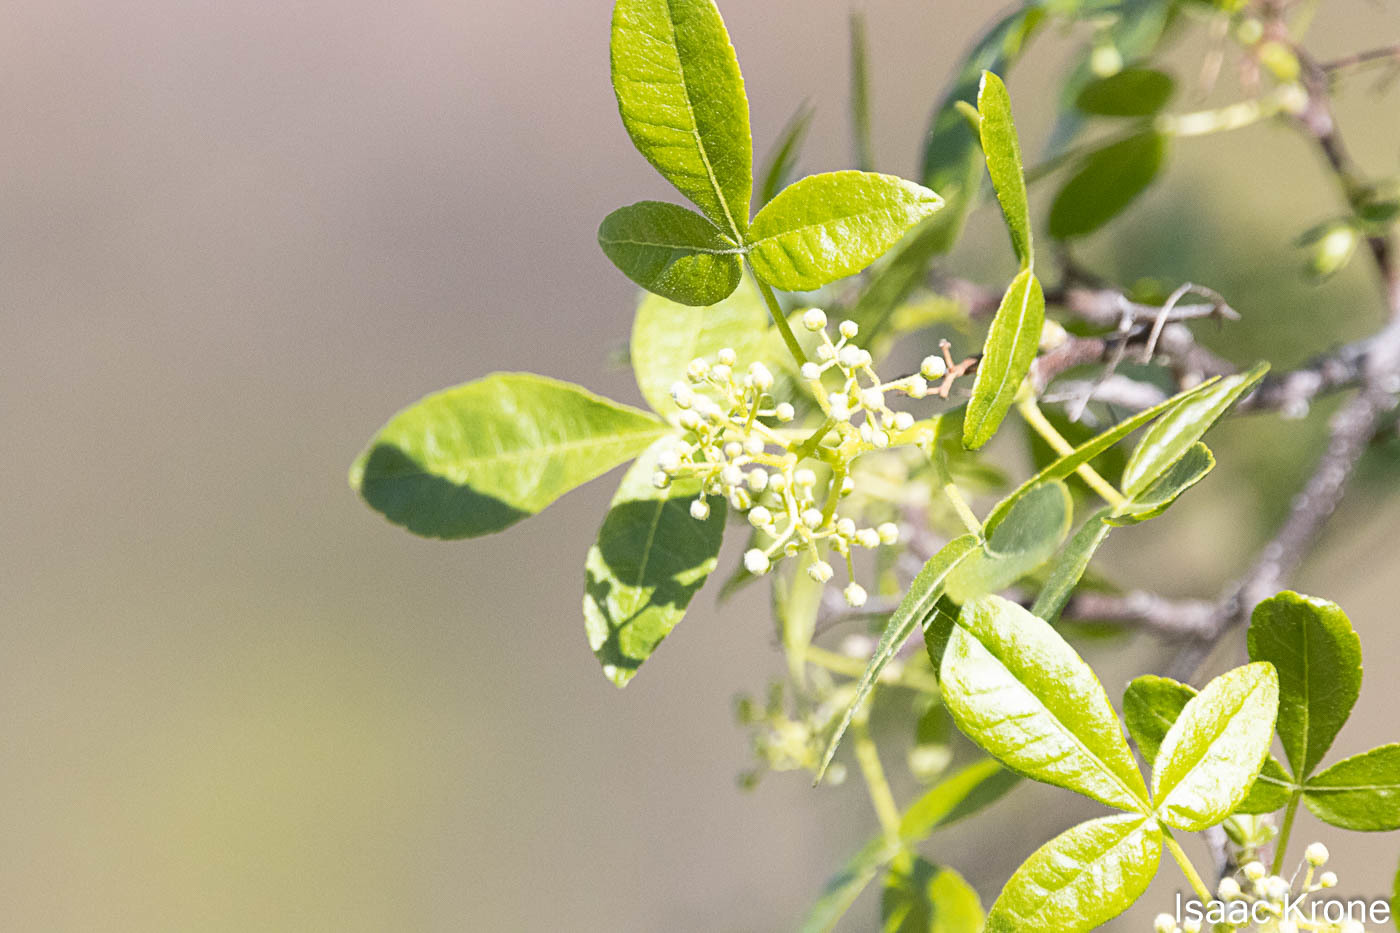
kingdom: Plantae
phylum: Tracheophyta
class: Magnoliopsida
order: Sapindales
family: Rutaceae
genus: Ptelea
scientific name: Ptelea crenulata
